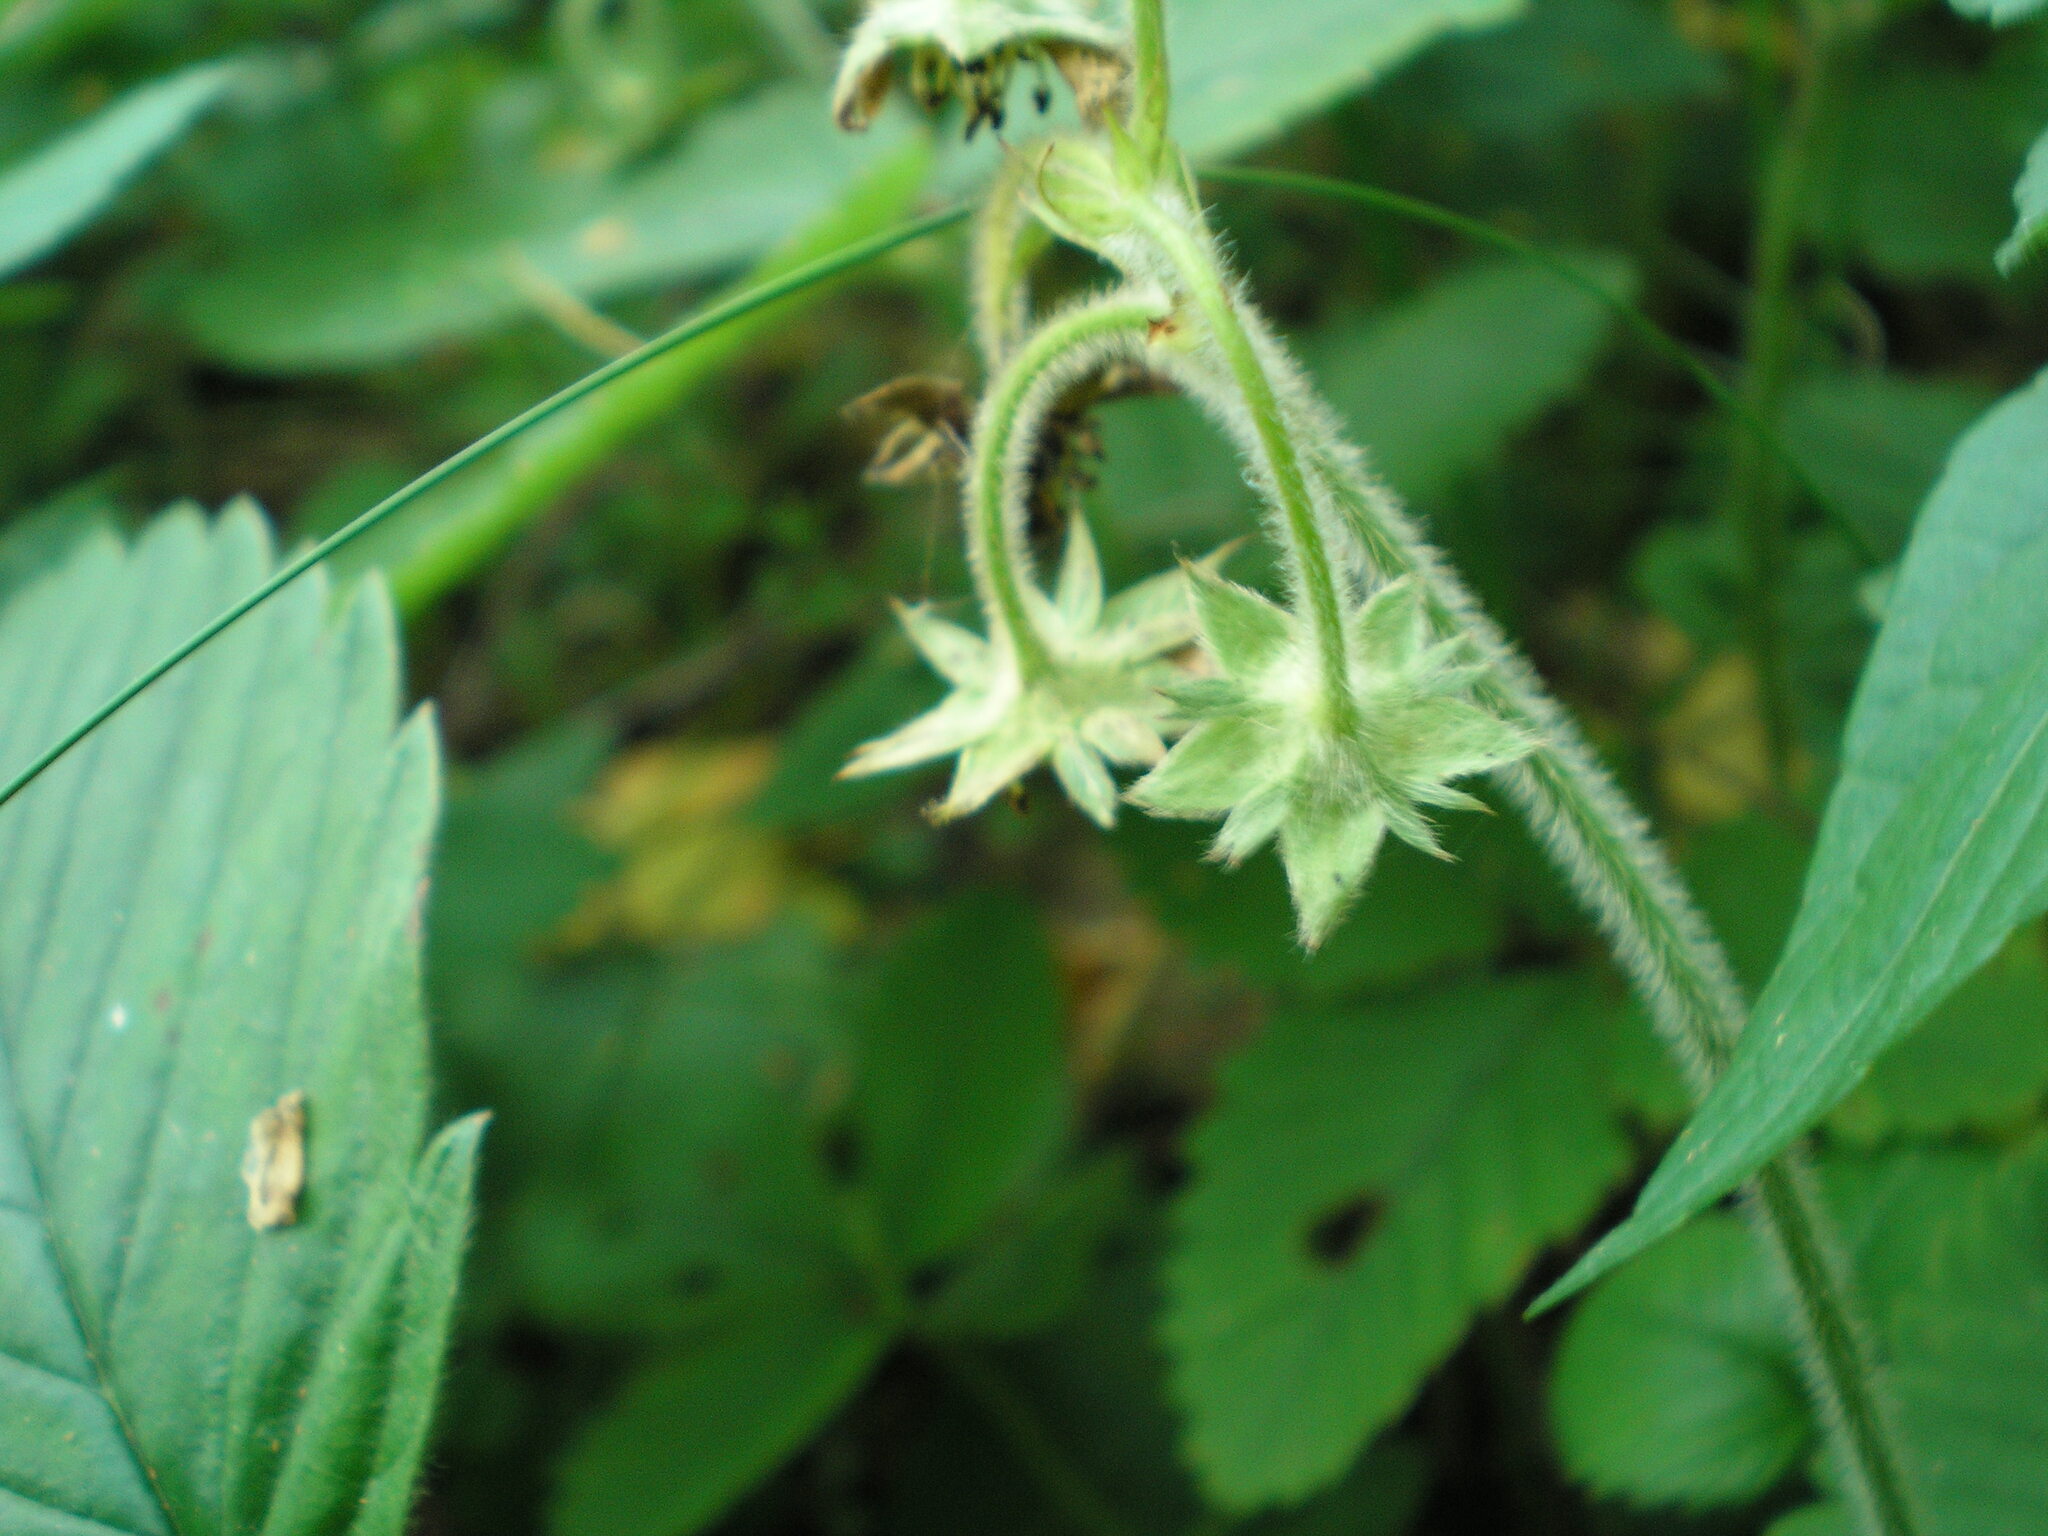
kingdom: Plantae
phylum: Tracheophyta
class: Magnoliopsida
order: Rosales
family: Rosaceae
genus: Fragaria
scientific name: Fragaria moschata
